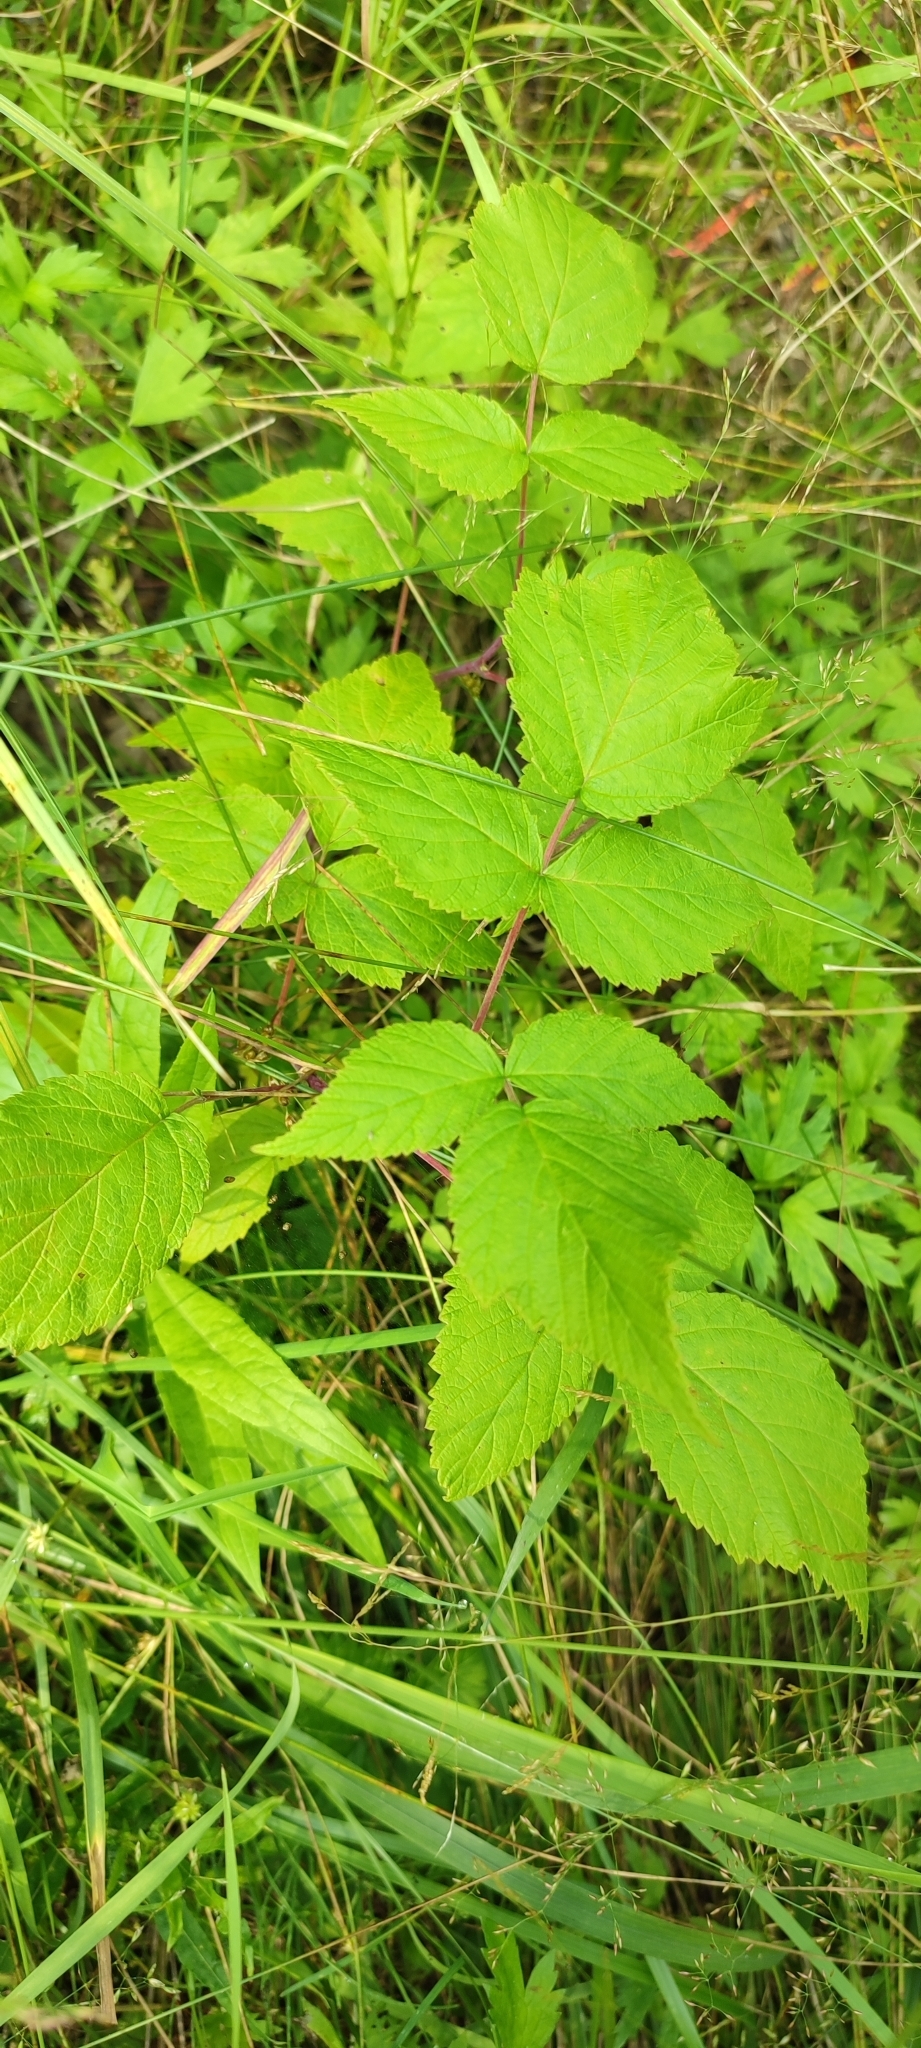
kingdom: Plantae
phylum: Tracheophyta
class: Magnoliopsida
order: Rosales
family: Rosaceae
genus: Rubus
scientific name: Rubus idaeus
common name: Raspberry
